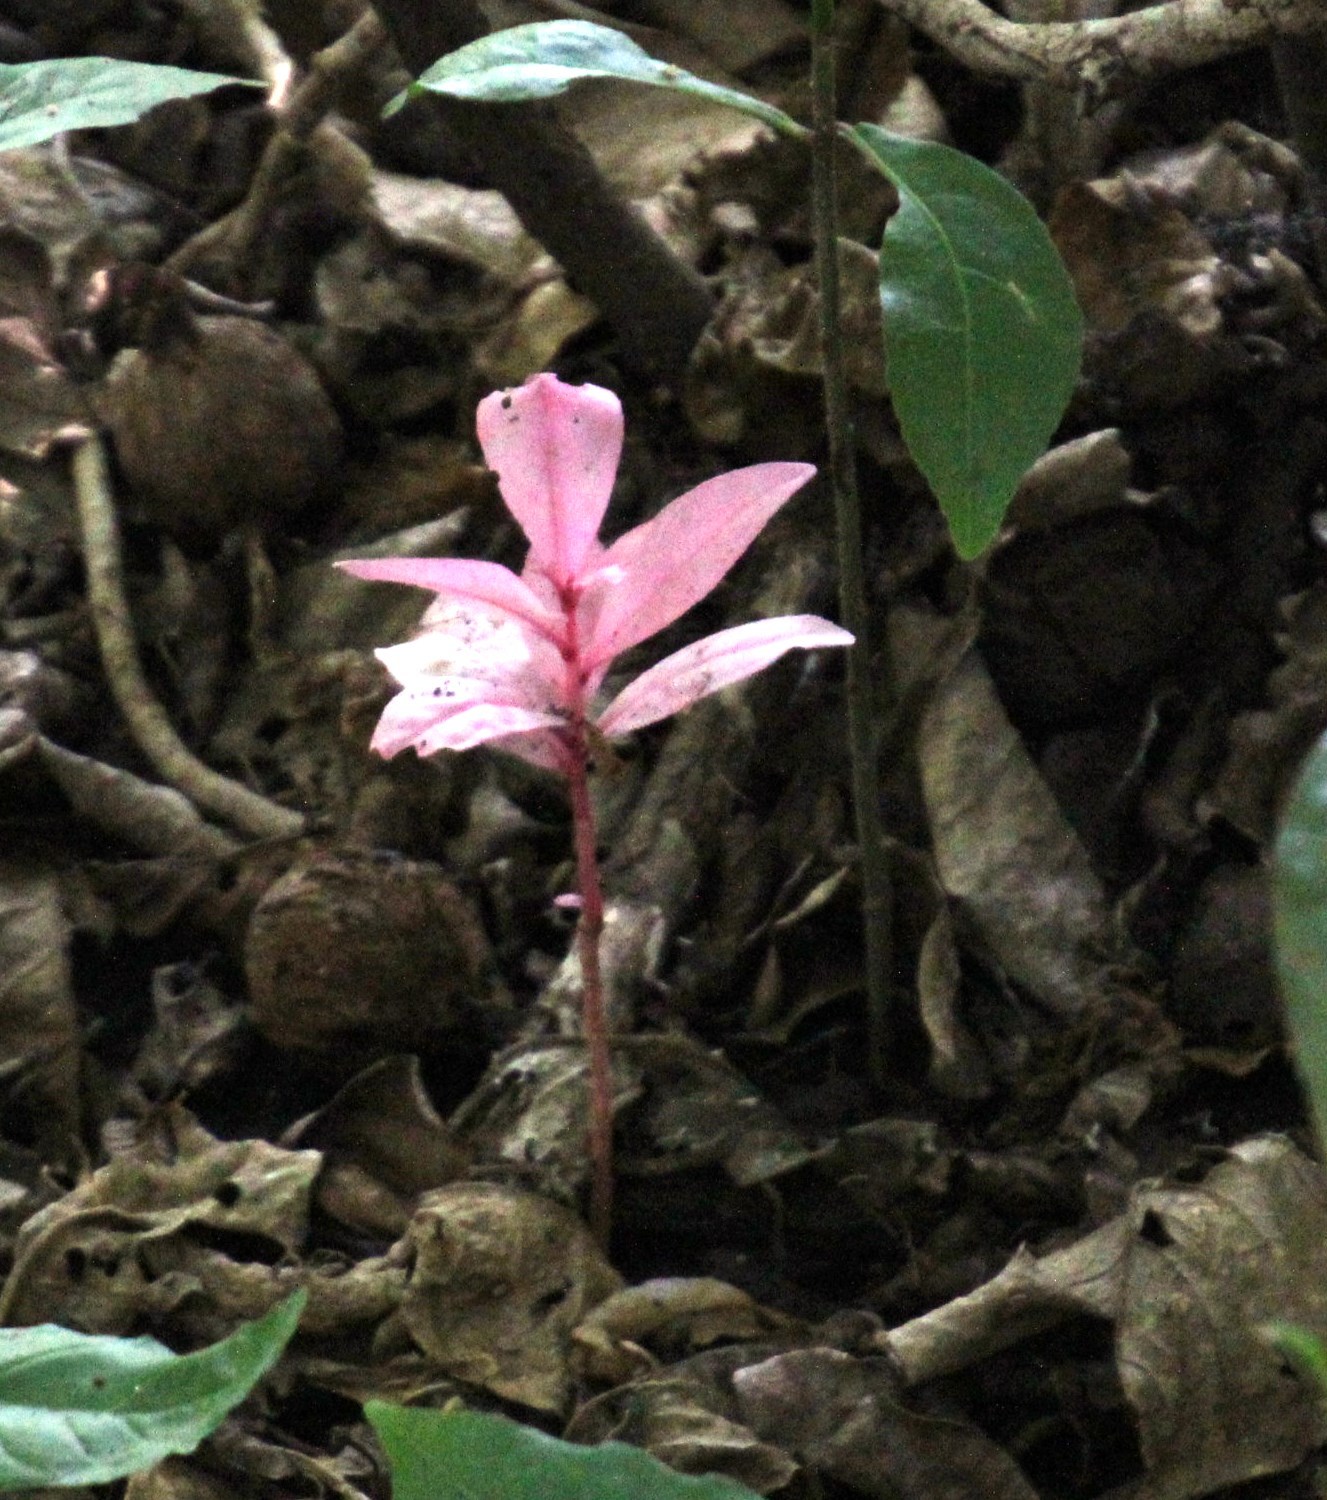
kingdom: Plantae
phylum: Tracheophyta
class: Magnoliopsida
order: Ericales
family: Lecythidaceae
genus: Barringtonia
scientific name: Barringtonia racemosa
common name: Brackwater mangrove
